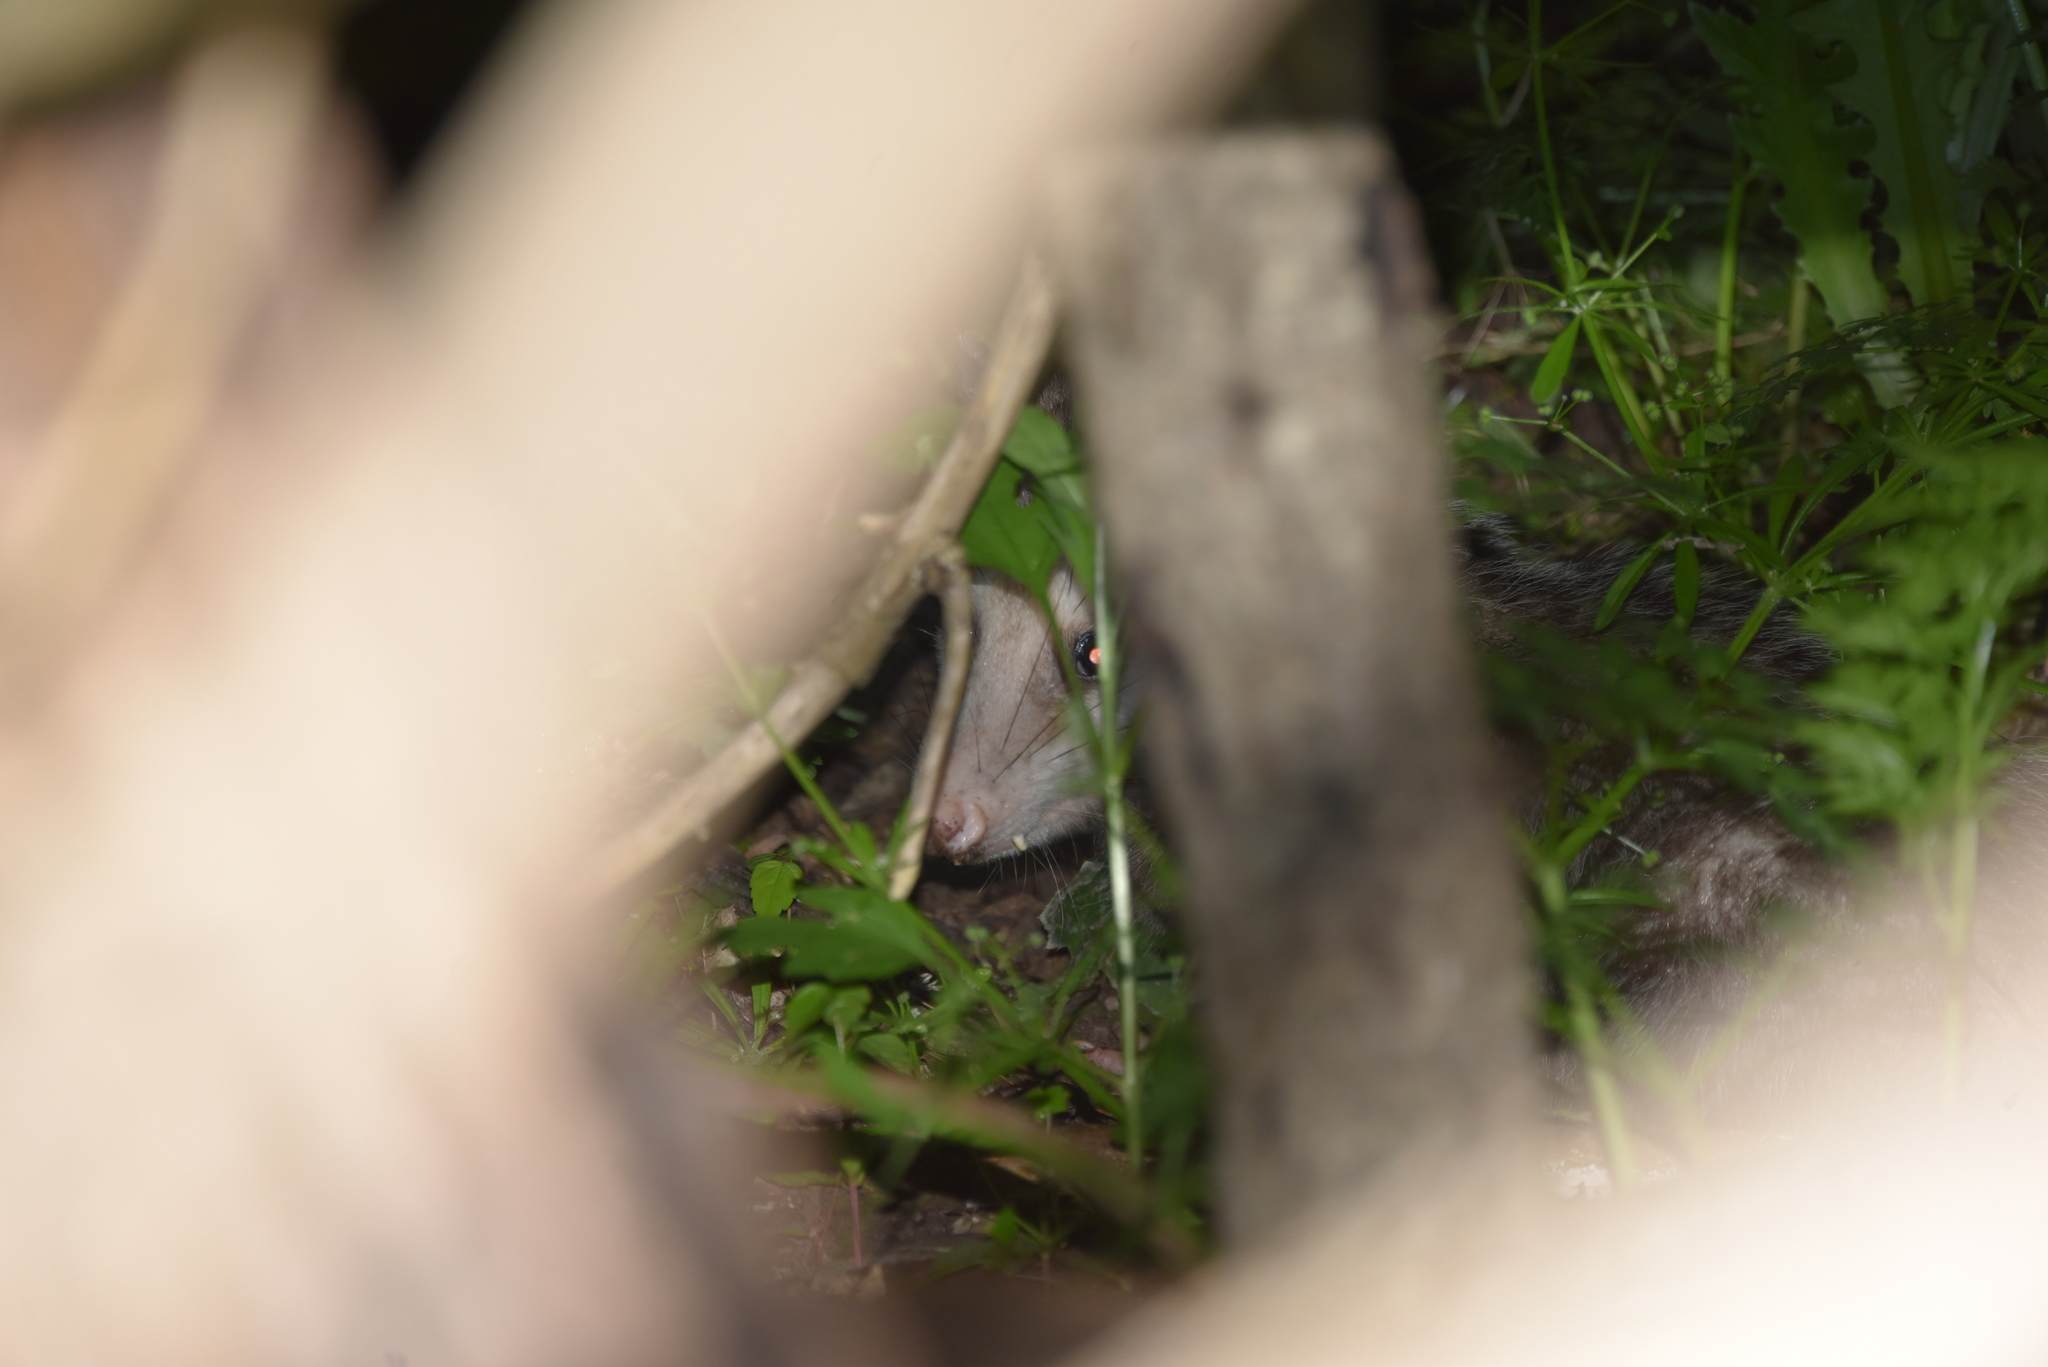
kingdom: Animalia
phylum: Chordata
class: Mammalia
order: Didelphimorphia
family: Didelphidae
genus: Didelphis
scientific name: Didelphis virginiana
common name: Virginia opossum
